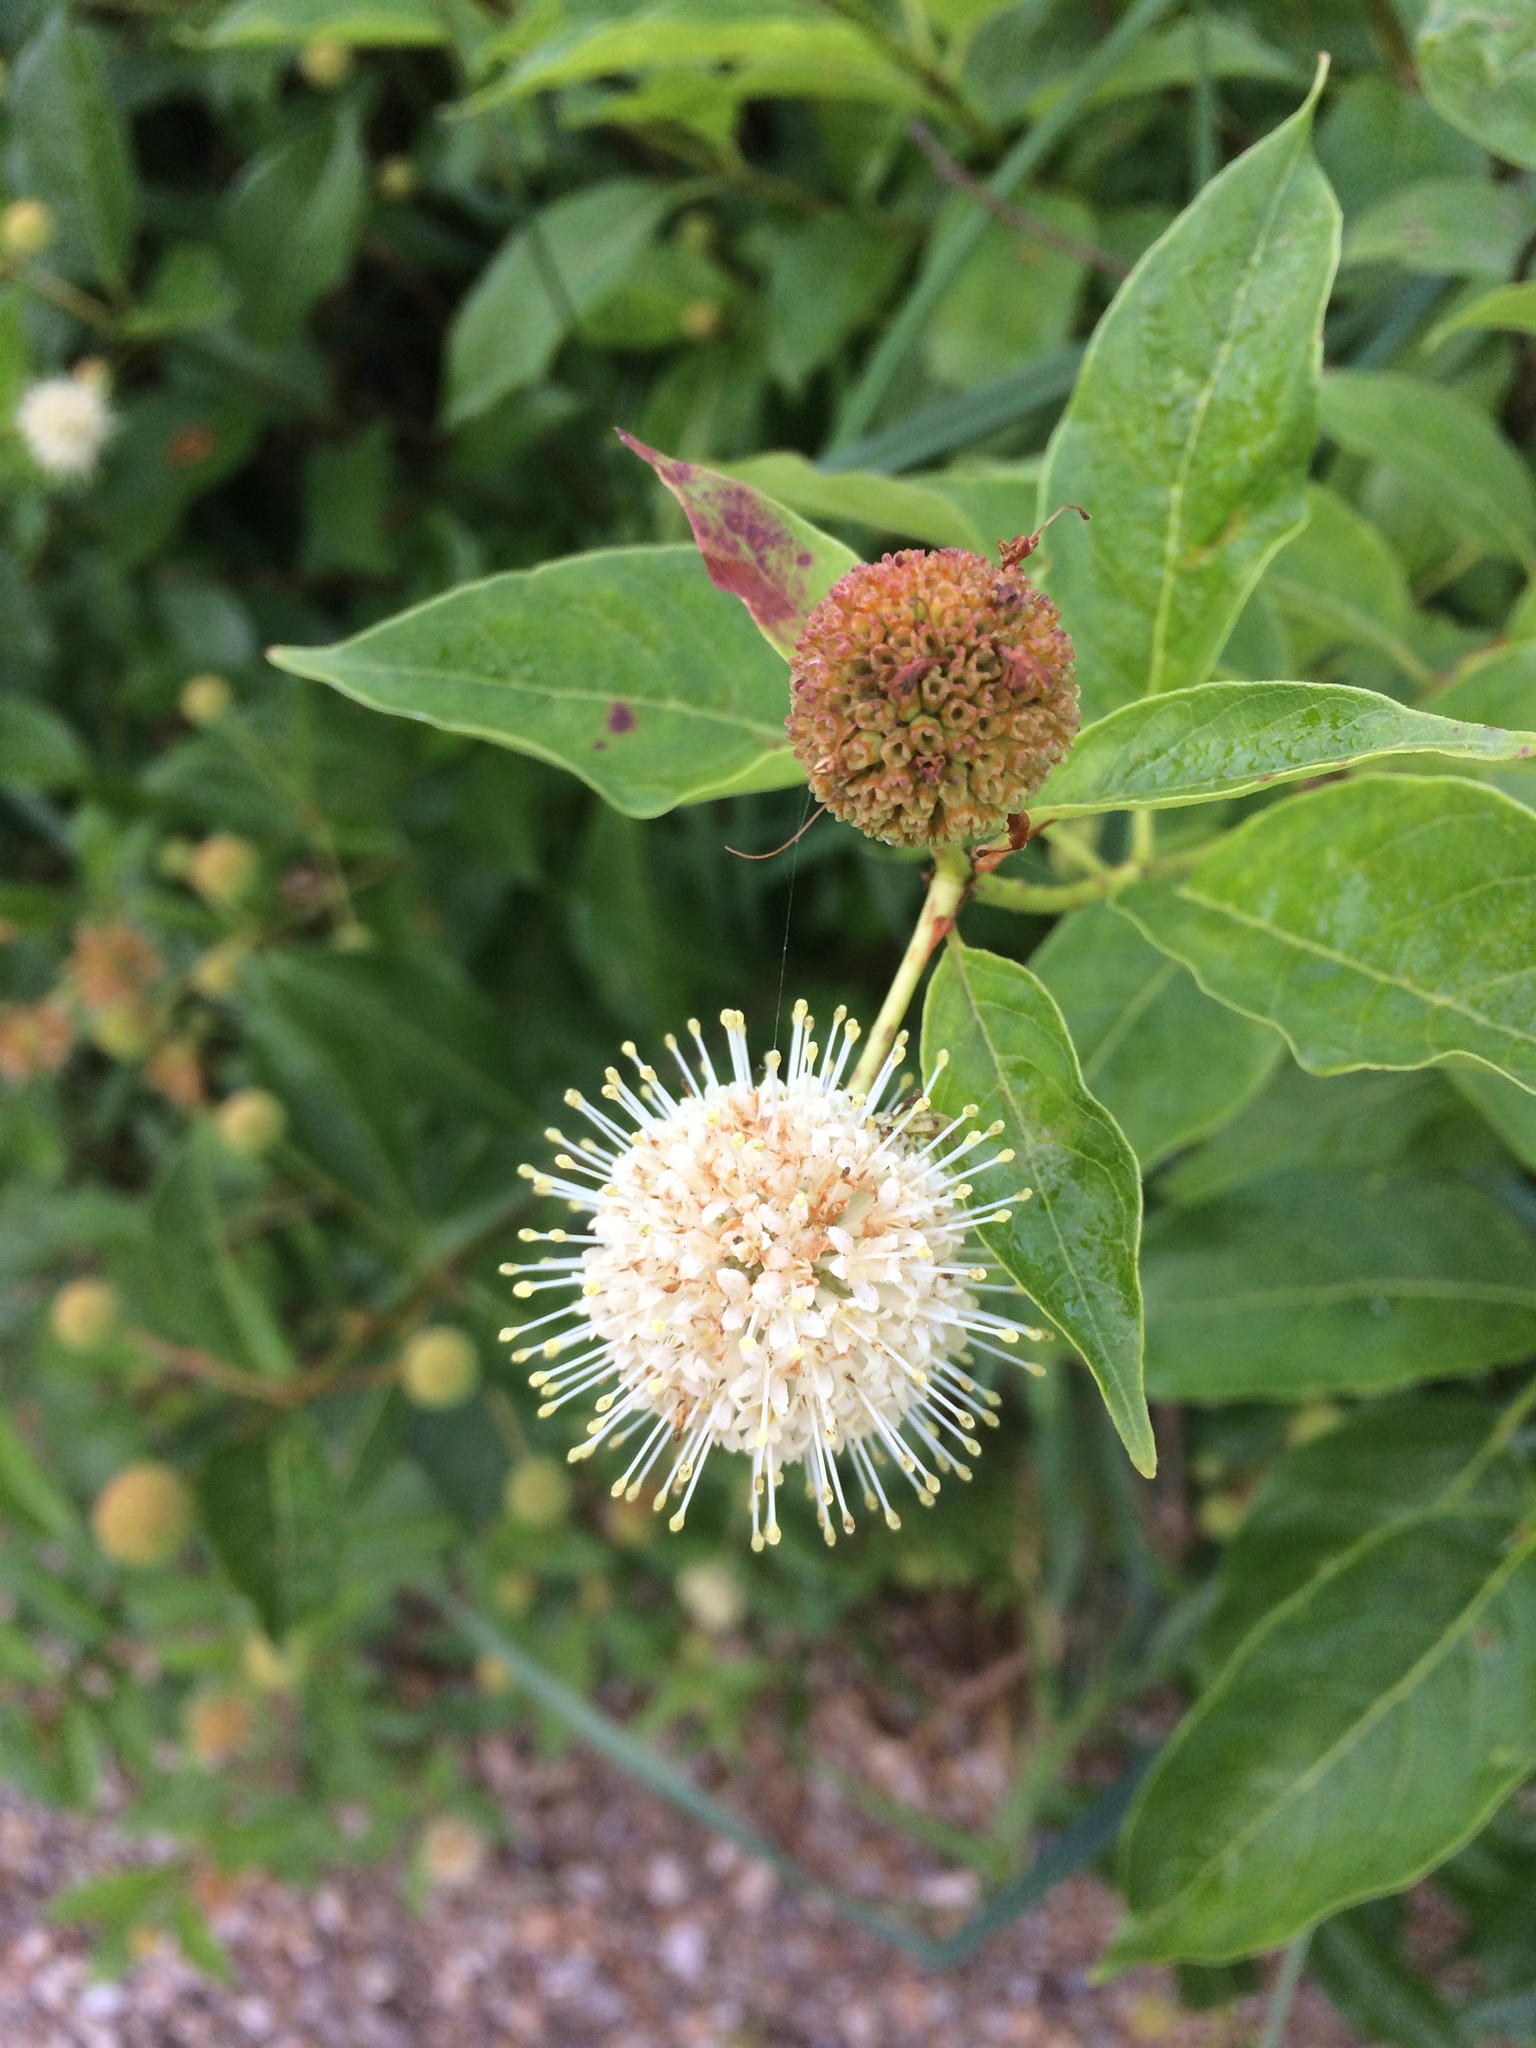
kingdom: Plantae
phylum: Tracheophyta
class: Magnoliopsida
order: Gentianales
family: Rubiaceae
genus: Cephalanthus
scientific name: Cephalanthus occidentalis
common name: Button-willow
